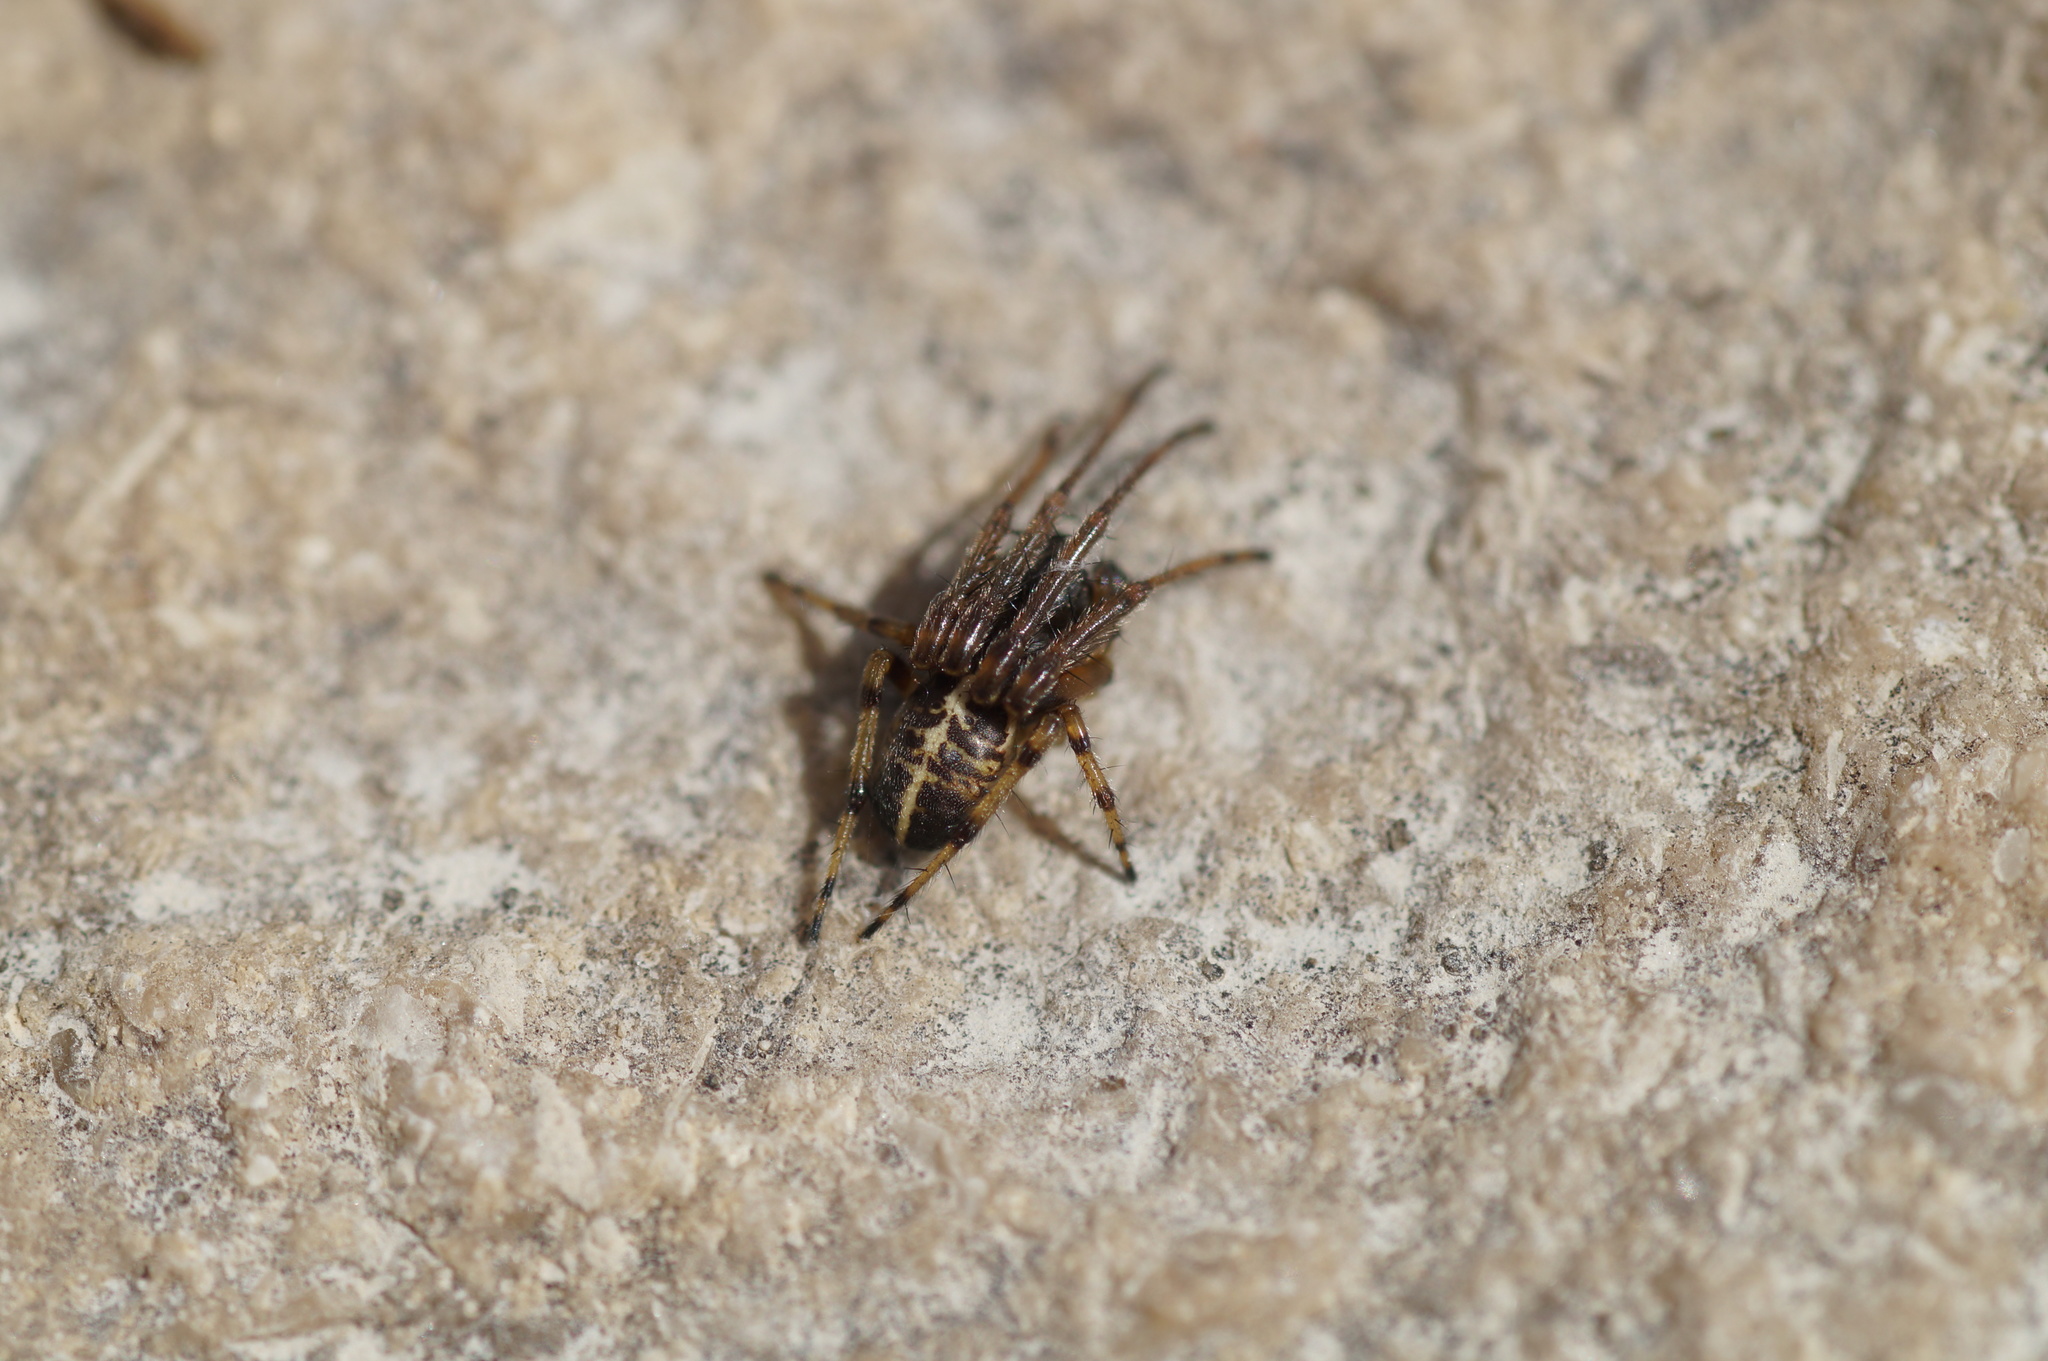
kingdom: Animalia
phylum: Arthropoda
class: Arachnida
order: Araneae
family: Araneidae
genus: Singa
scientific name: Singa hamata
